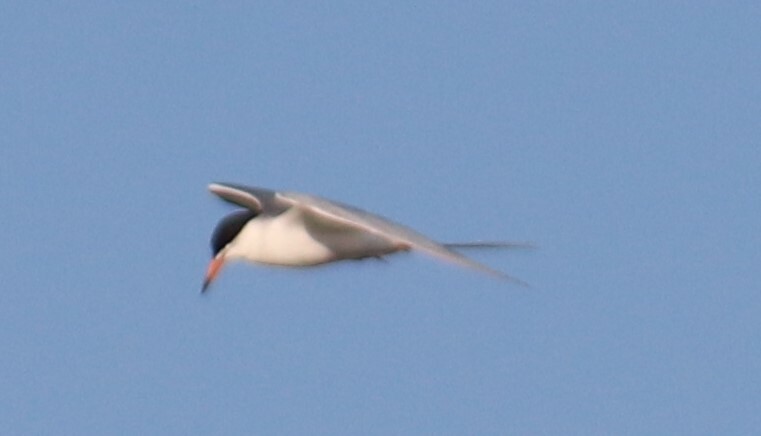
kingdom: Animalia
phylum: Chordata
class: Aves
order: Charadriiformes
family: Laridae
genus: Sterna
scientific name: Sterna forsteri
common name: Forster's tern
